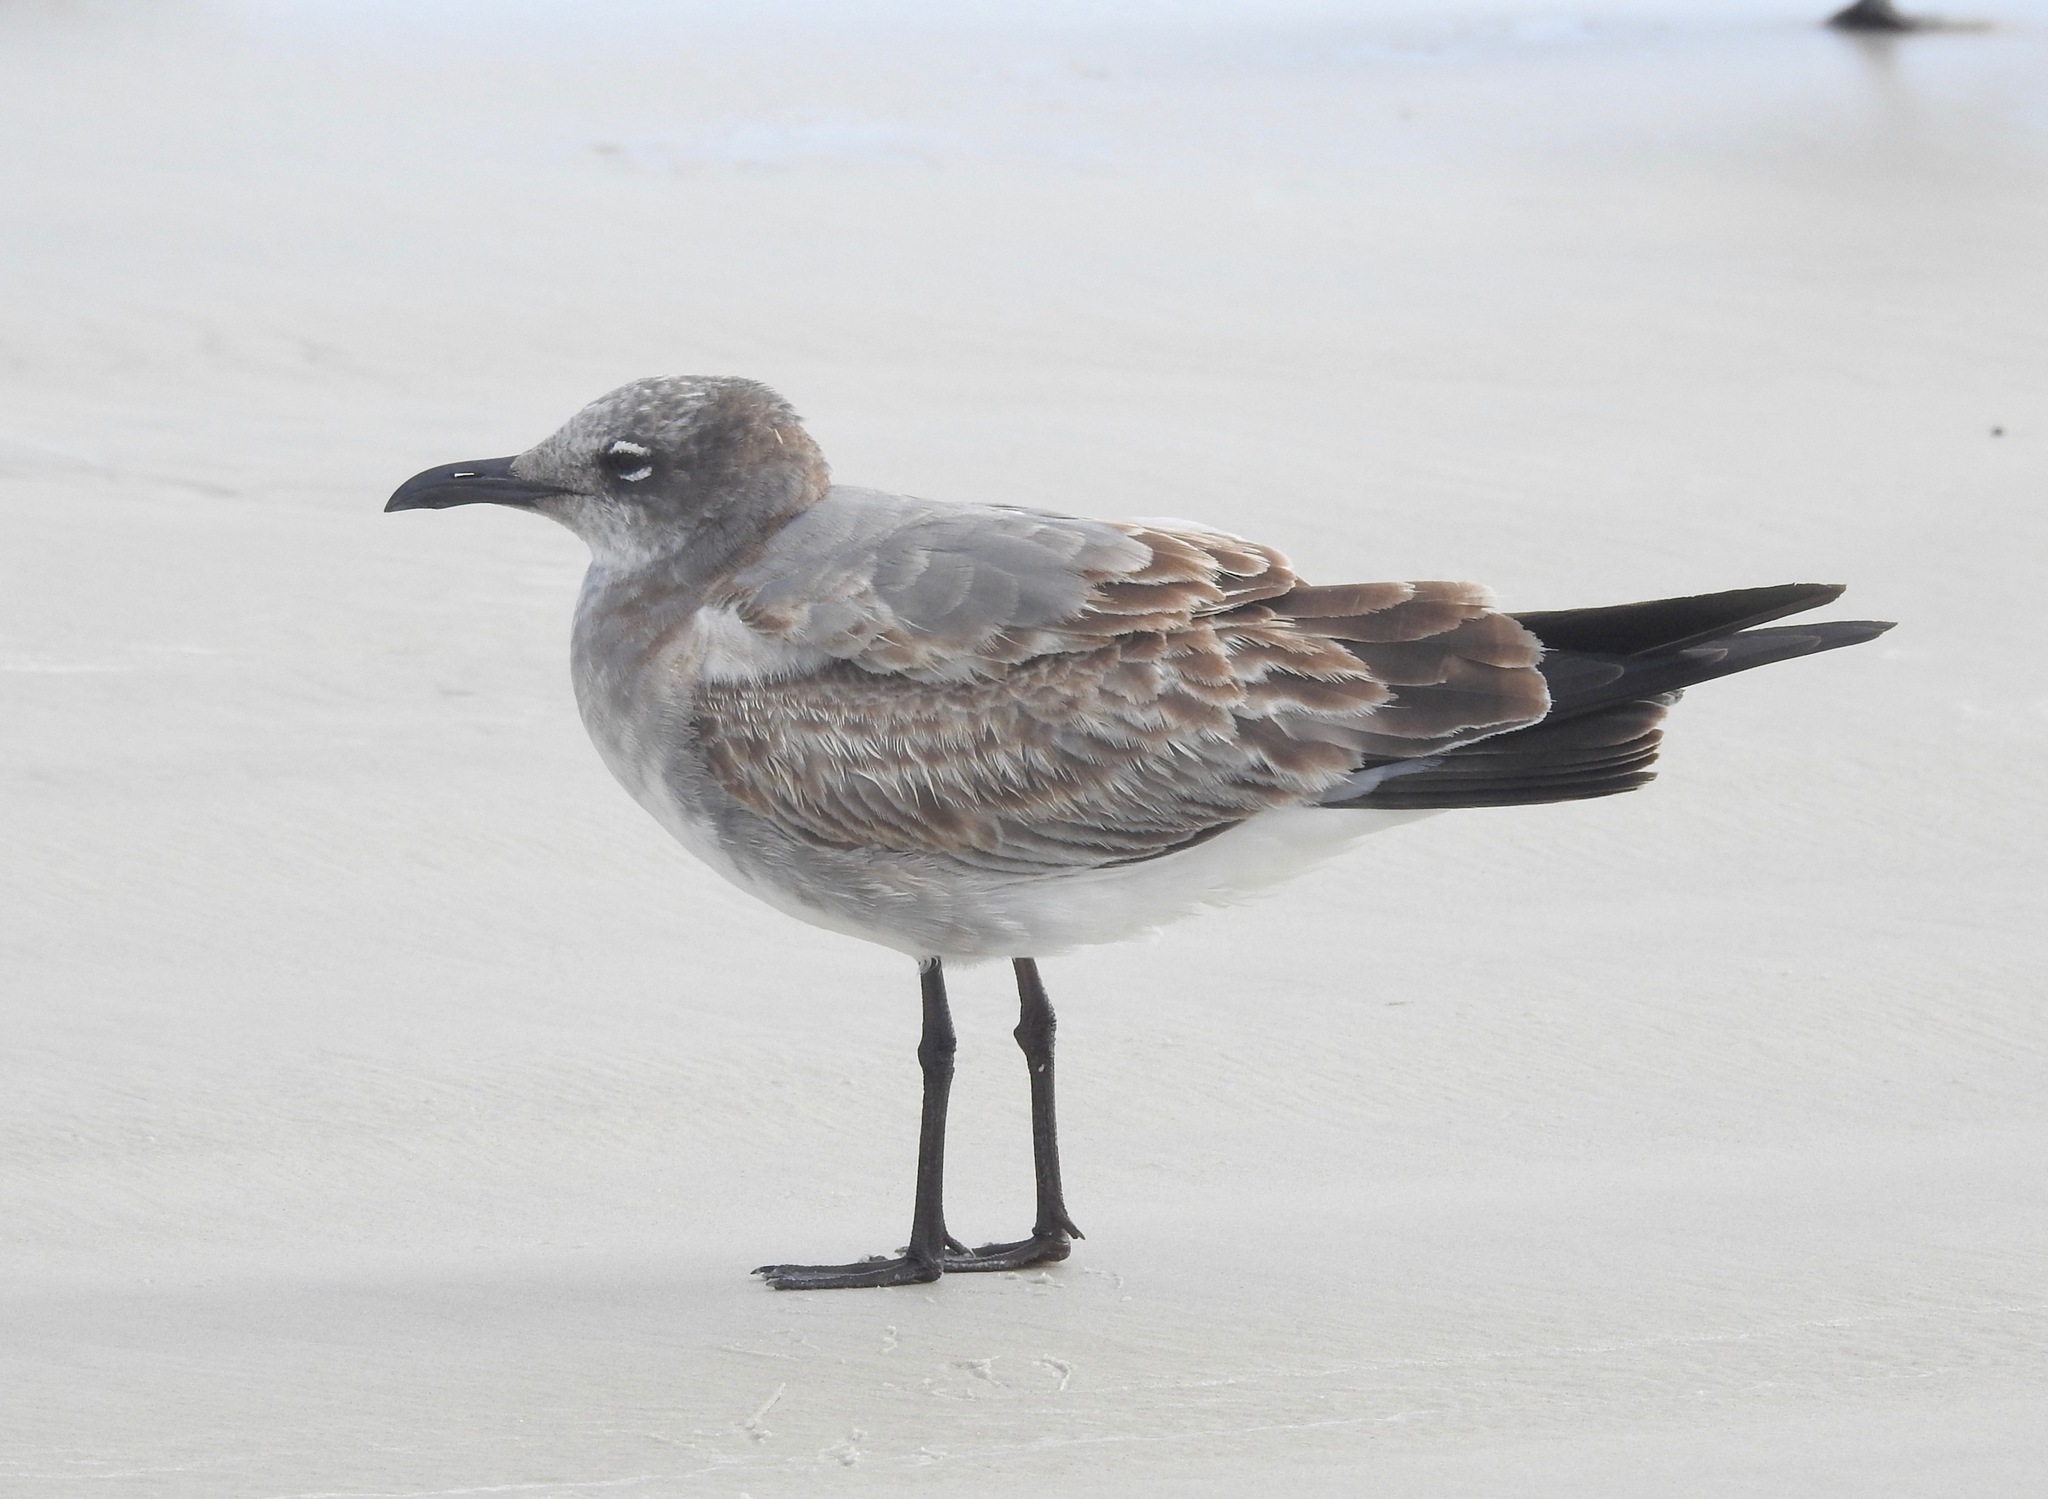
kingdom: Animalia
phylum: Chordata
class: Aves
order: Charadriiformes
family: Laridae
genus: Leucophaeus
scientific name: Leucophaeus atricilla
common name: Laughing gull
